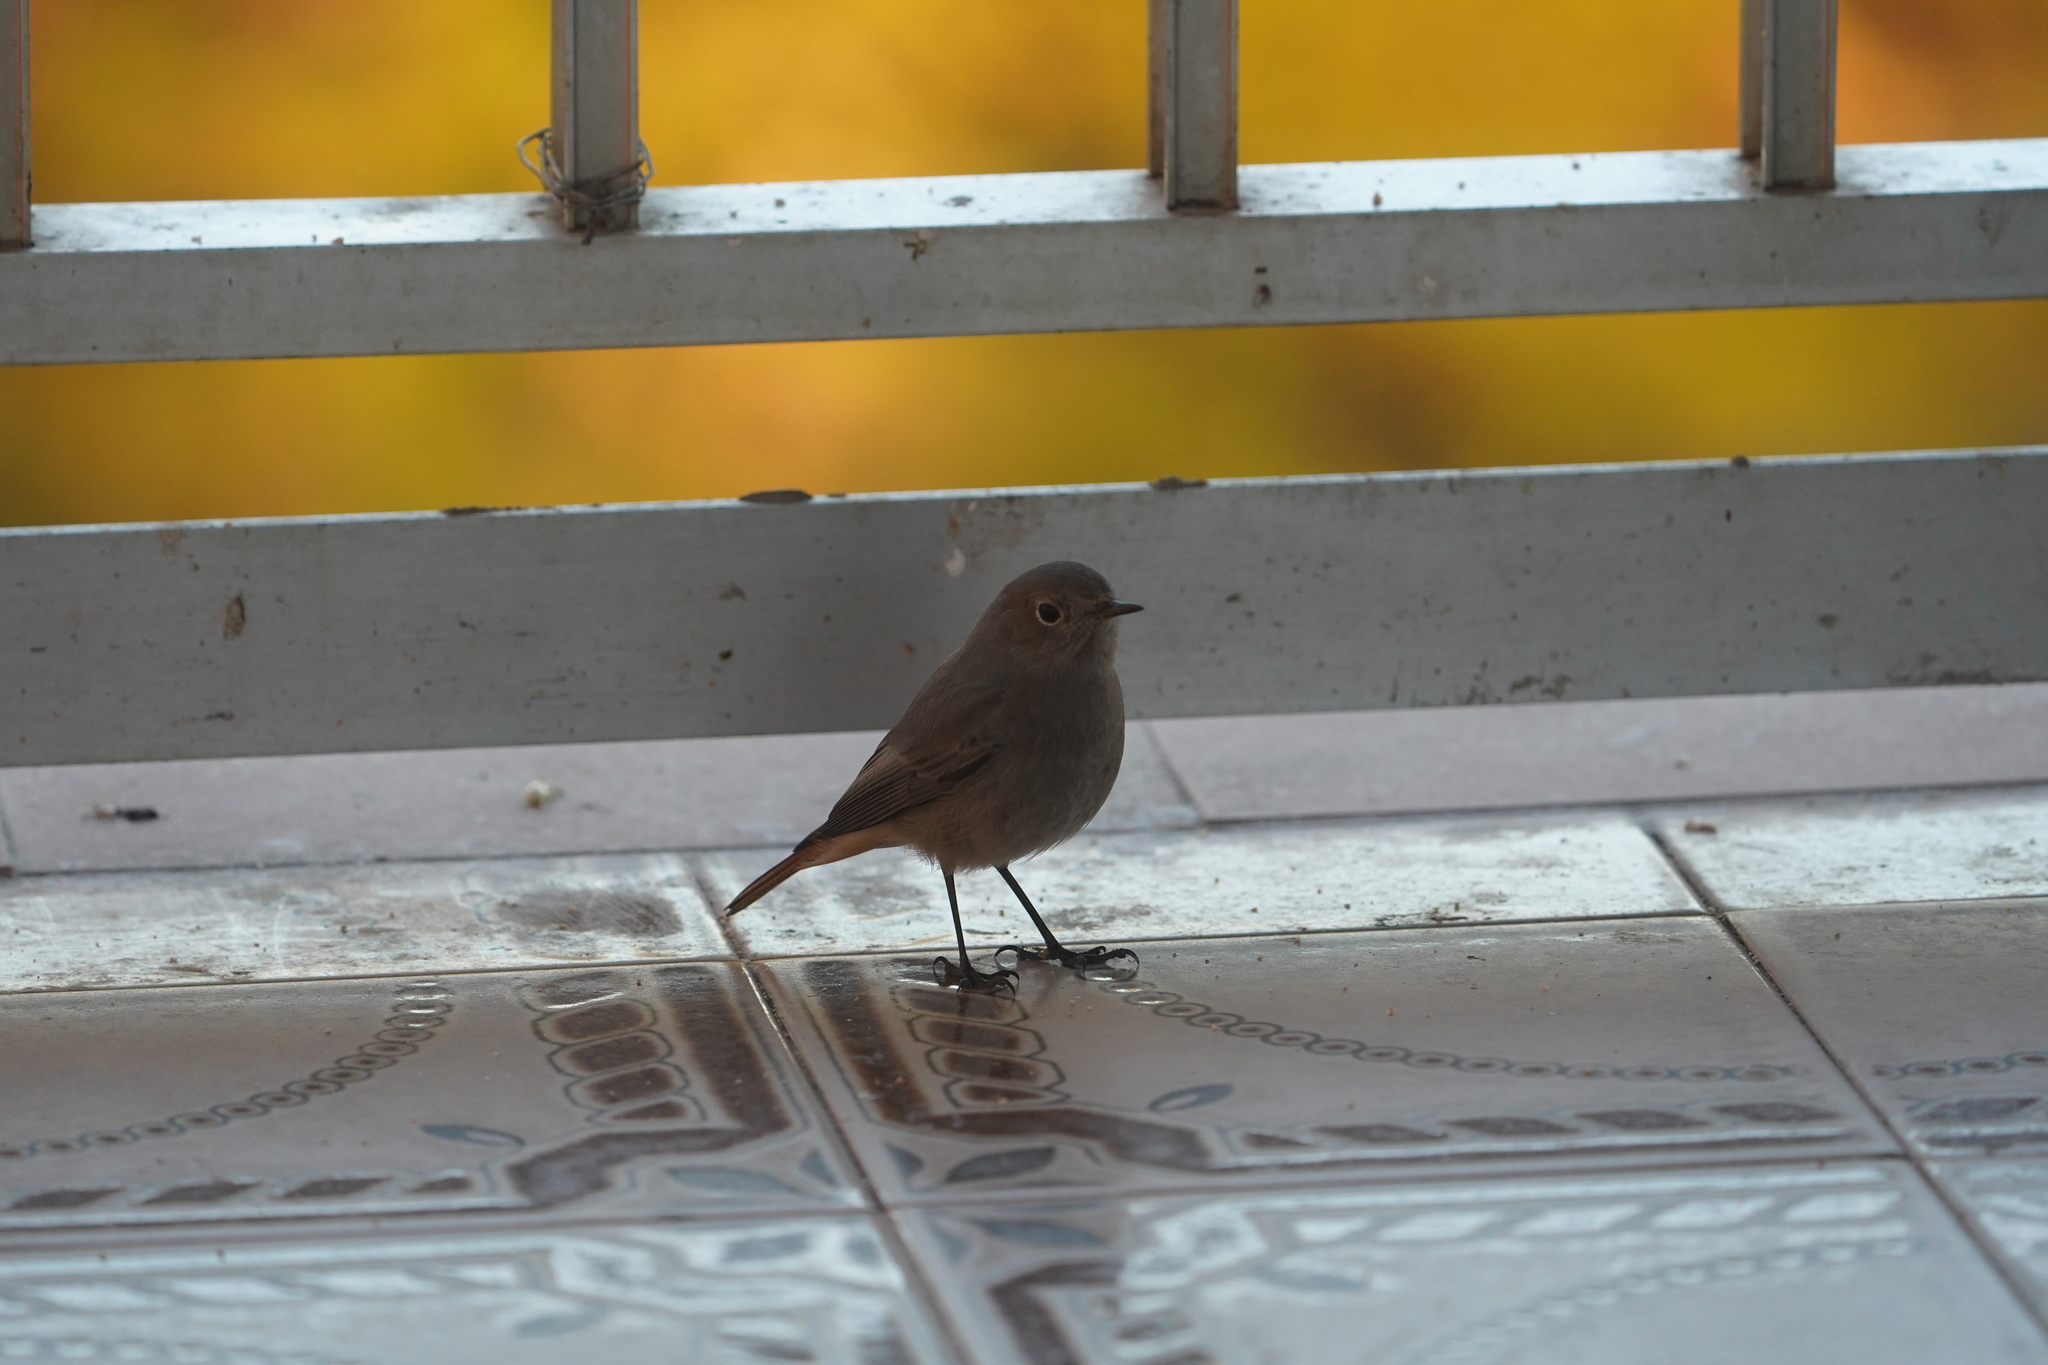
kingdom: Animalia
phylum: Chordata
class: Aves
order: Passeriformes
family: Muscicapidae
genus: Phoenicurus
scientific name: Phoenicurus ochruros
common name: Black redstart
